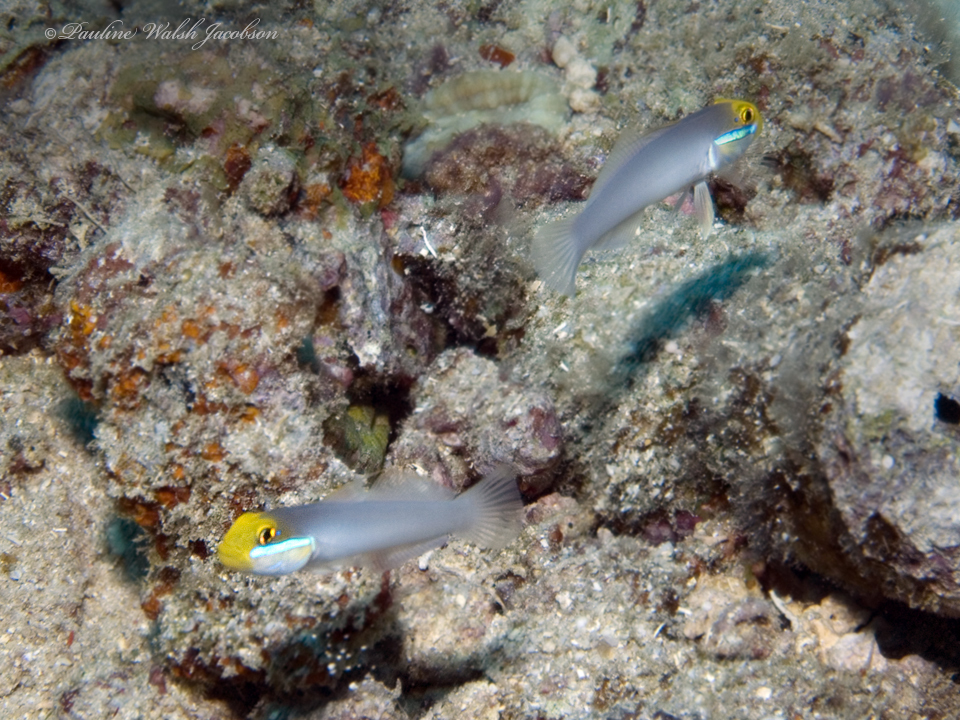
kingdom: Animalia
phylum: Chordata
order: Perciformes
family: Gobiidae
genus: Valenciennea
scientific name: Valenciennea strigata
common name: Blueband goby
